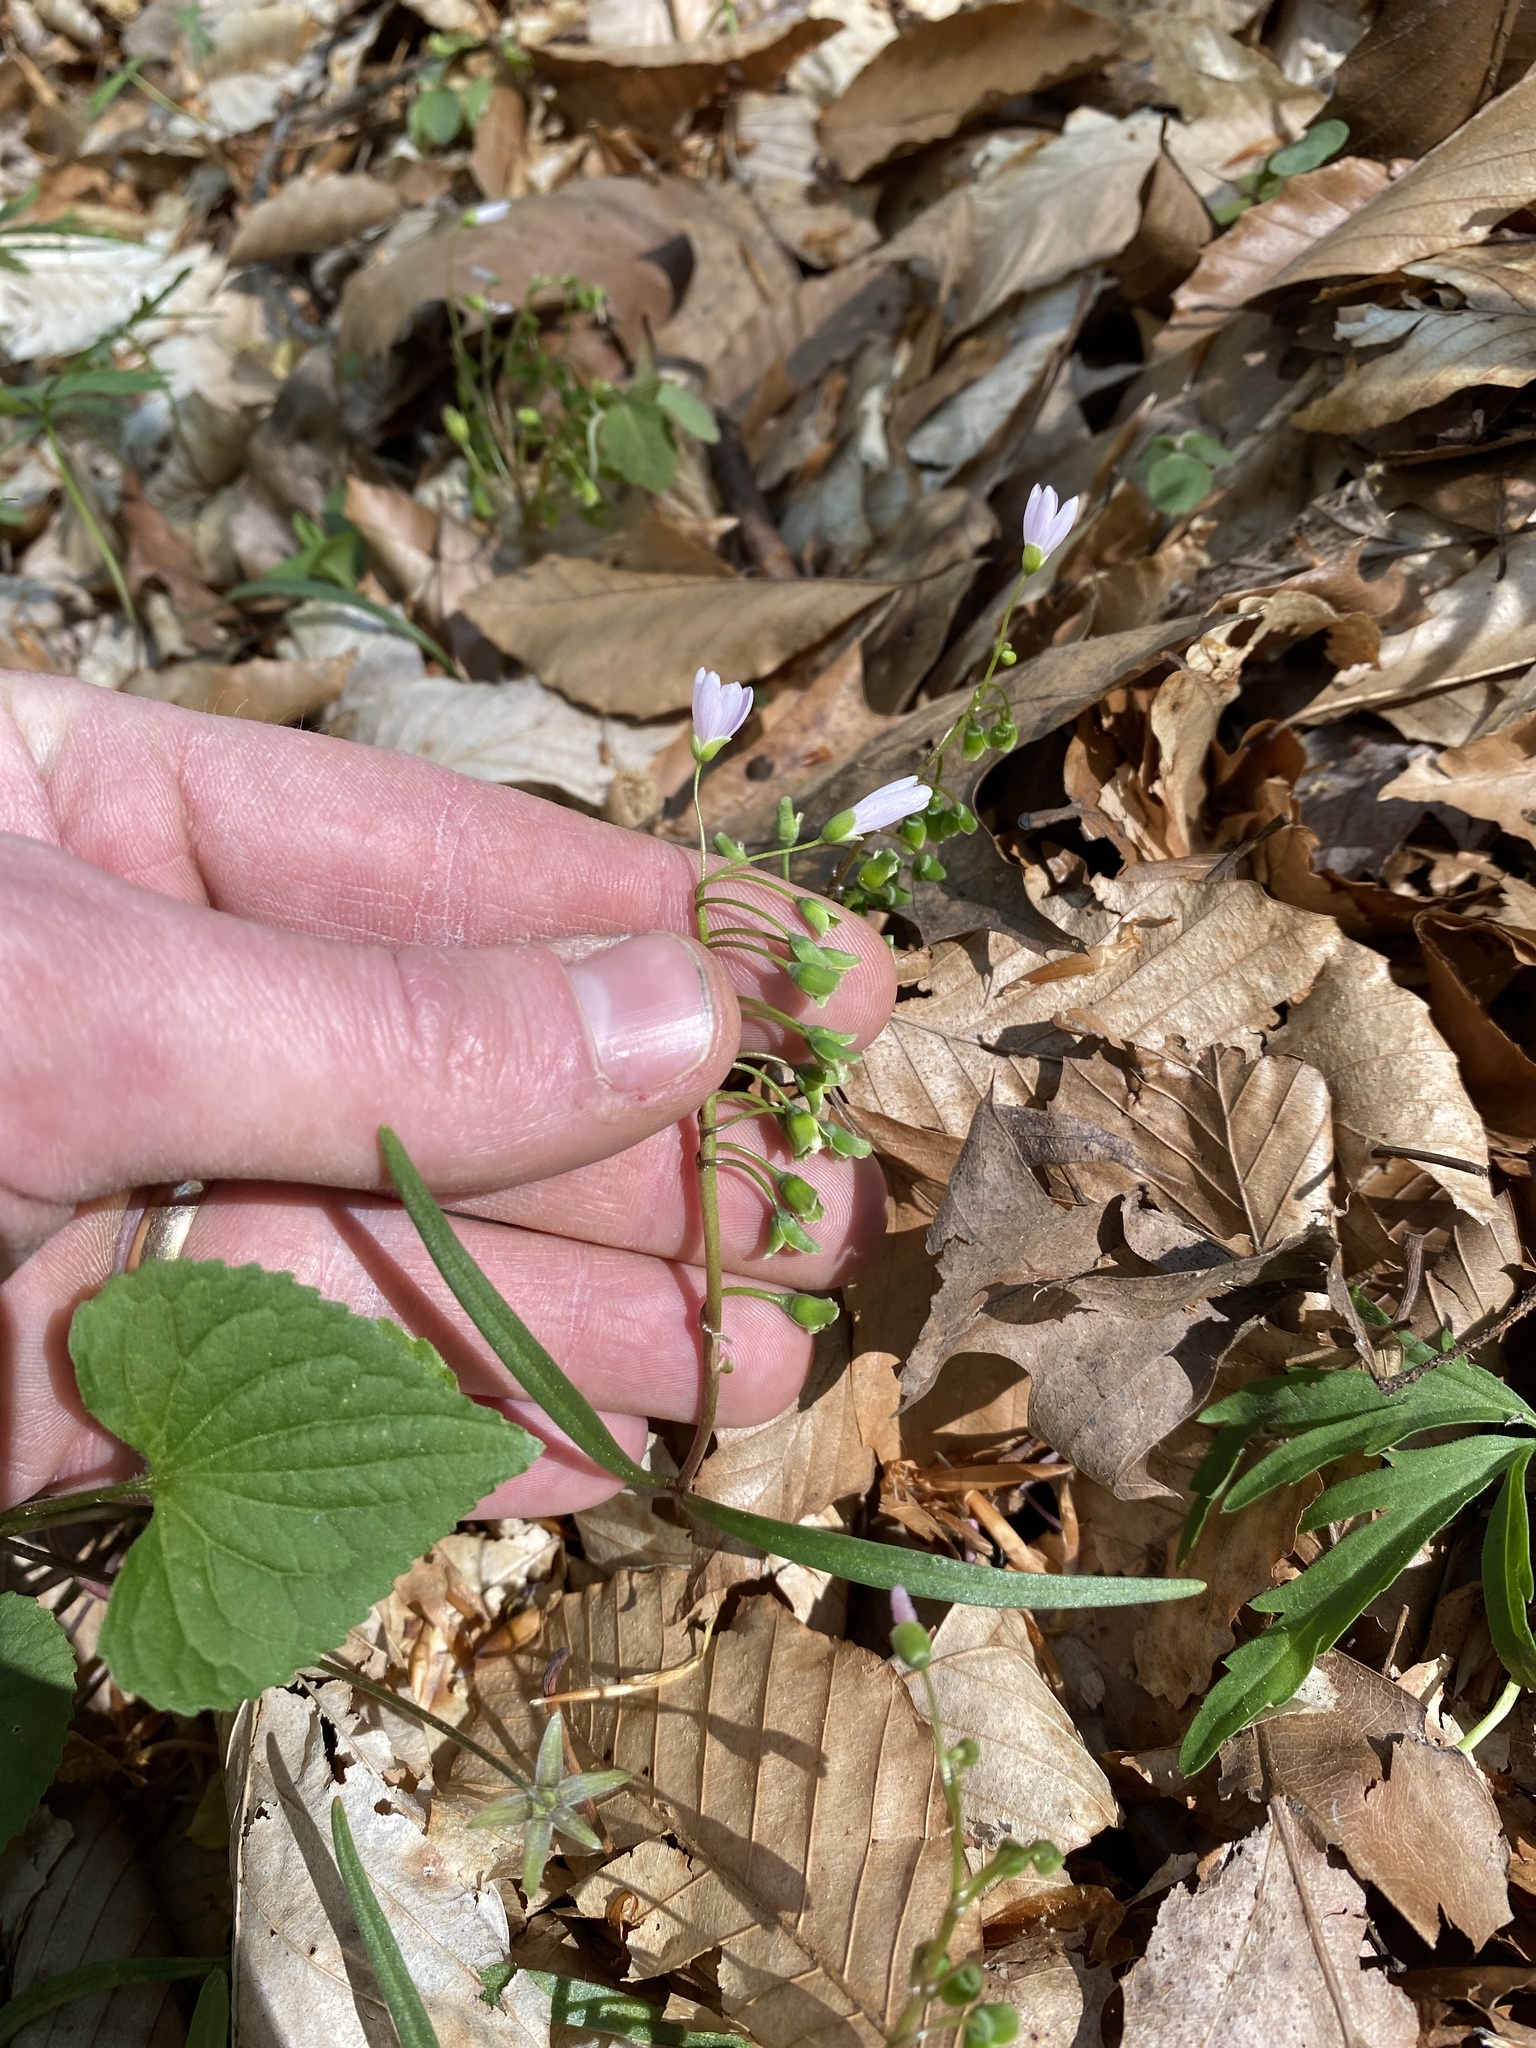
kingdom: Plantae
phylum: Tracheophyta
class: Magnoliopsida
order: Caryophyllales
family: Montiaceae
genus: Claytonia
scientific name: Claytonia virginica
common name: Virginia springbeauty
